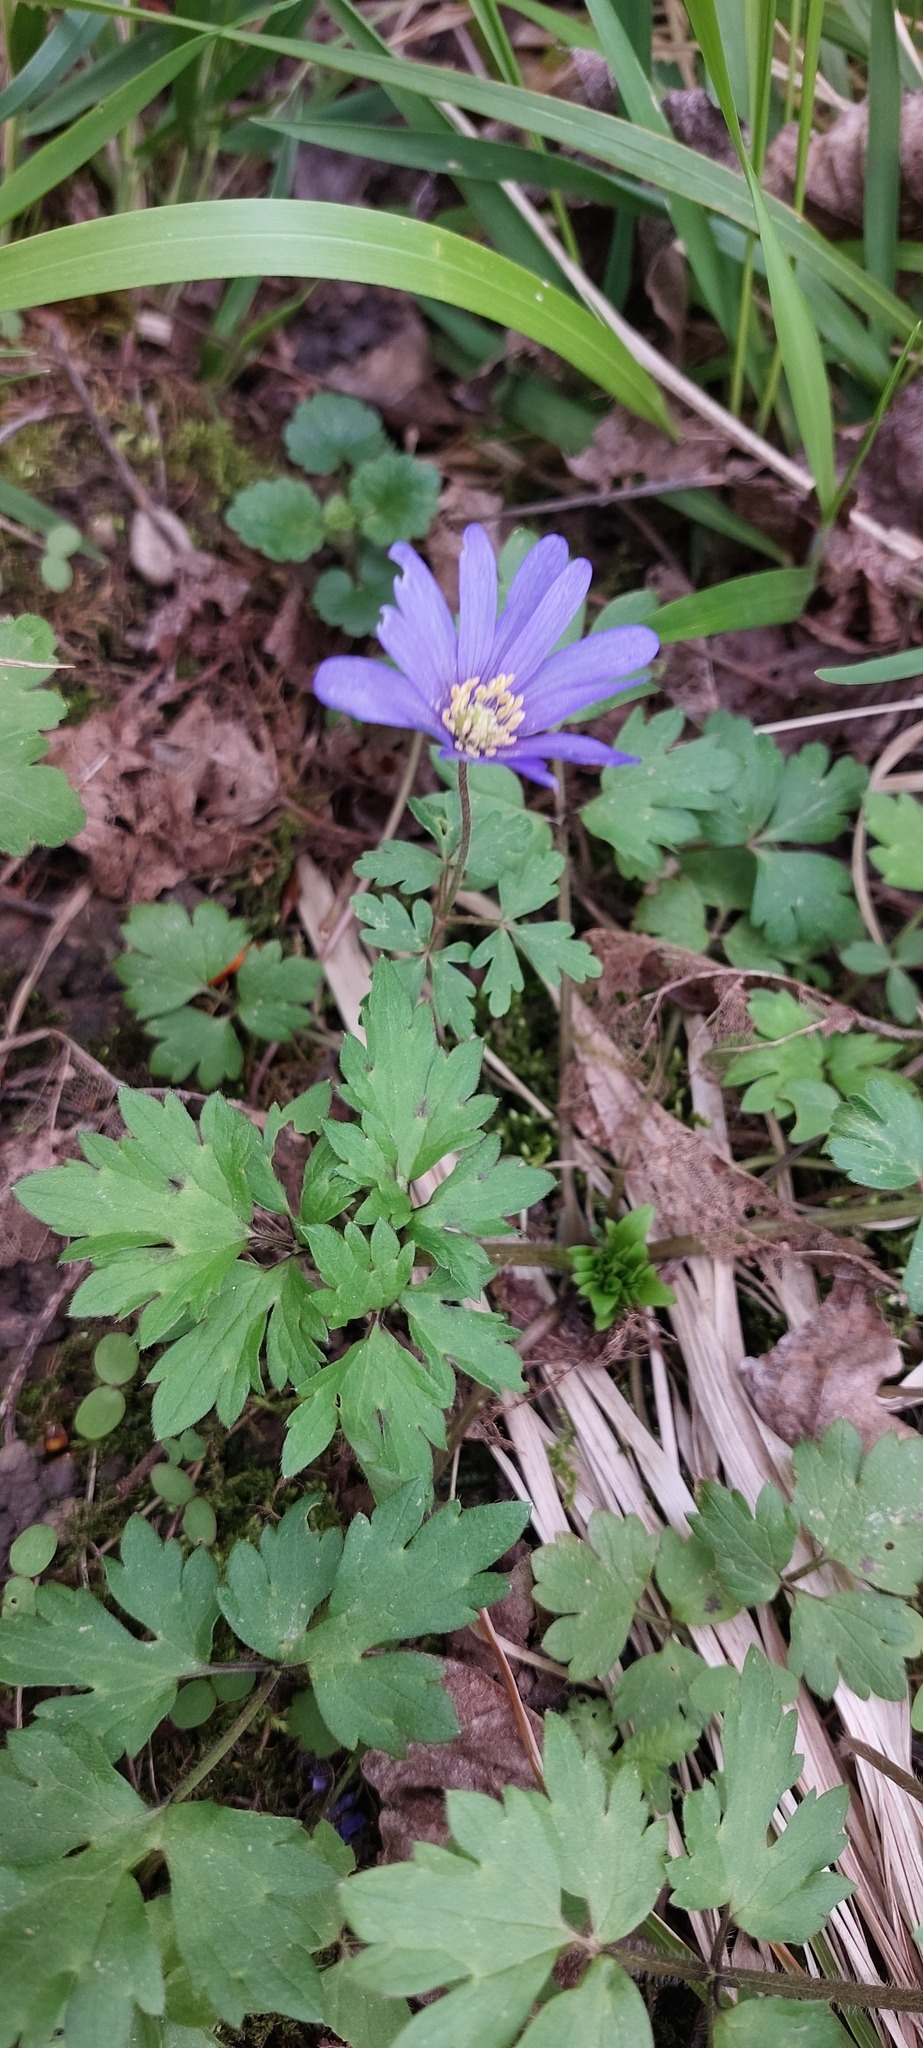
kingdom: Plantae
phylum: Tracheophyta
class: Magnoliopsida
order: Ranunculales
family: Ranunculaceae
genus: Anemone
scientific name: Anemone blanda
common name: Balkan anemone
